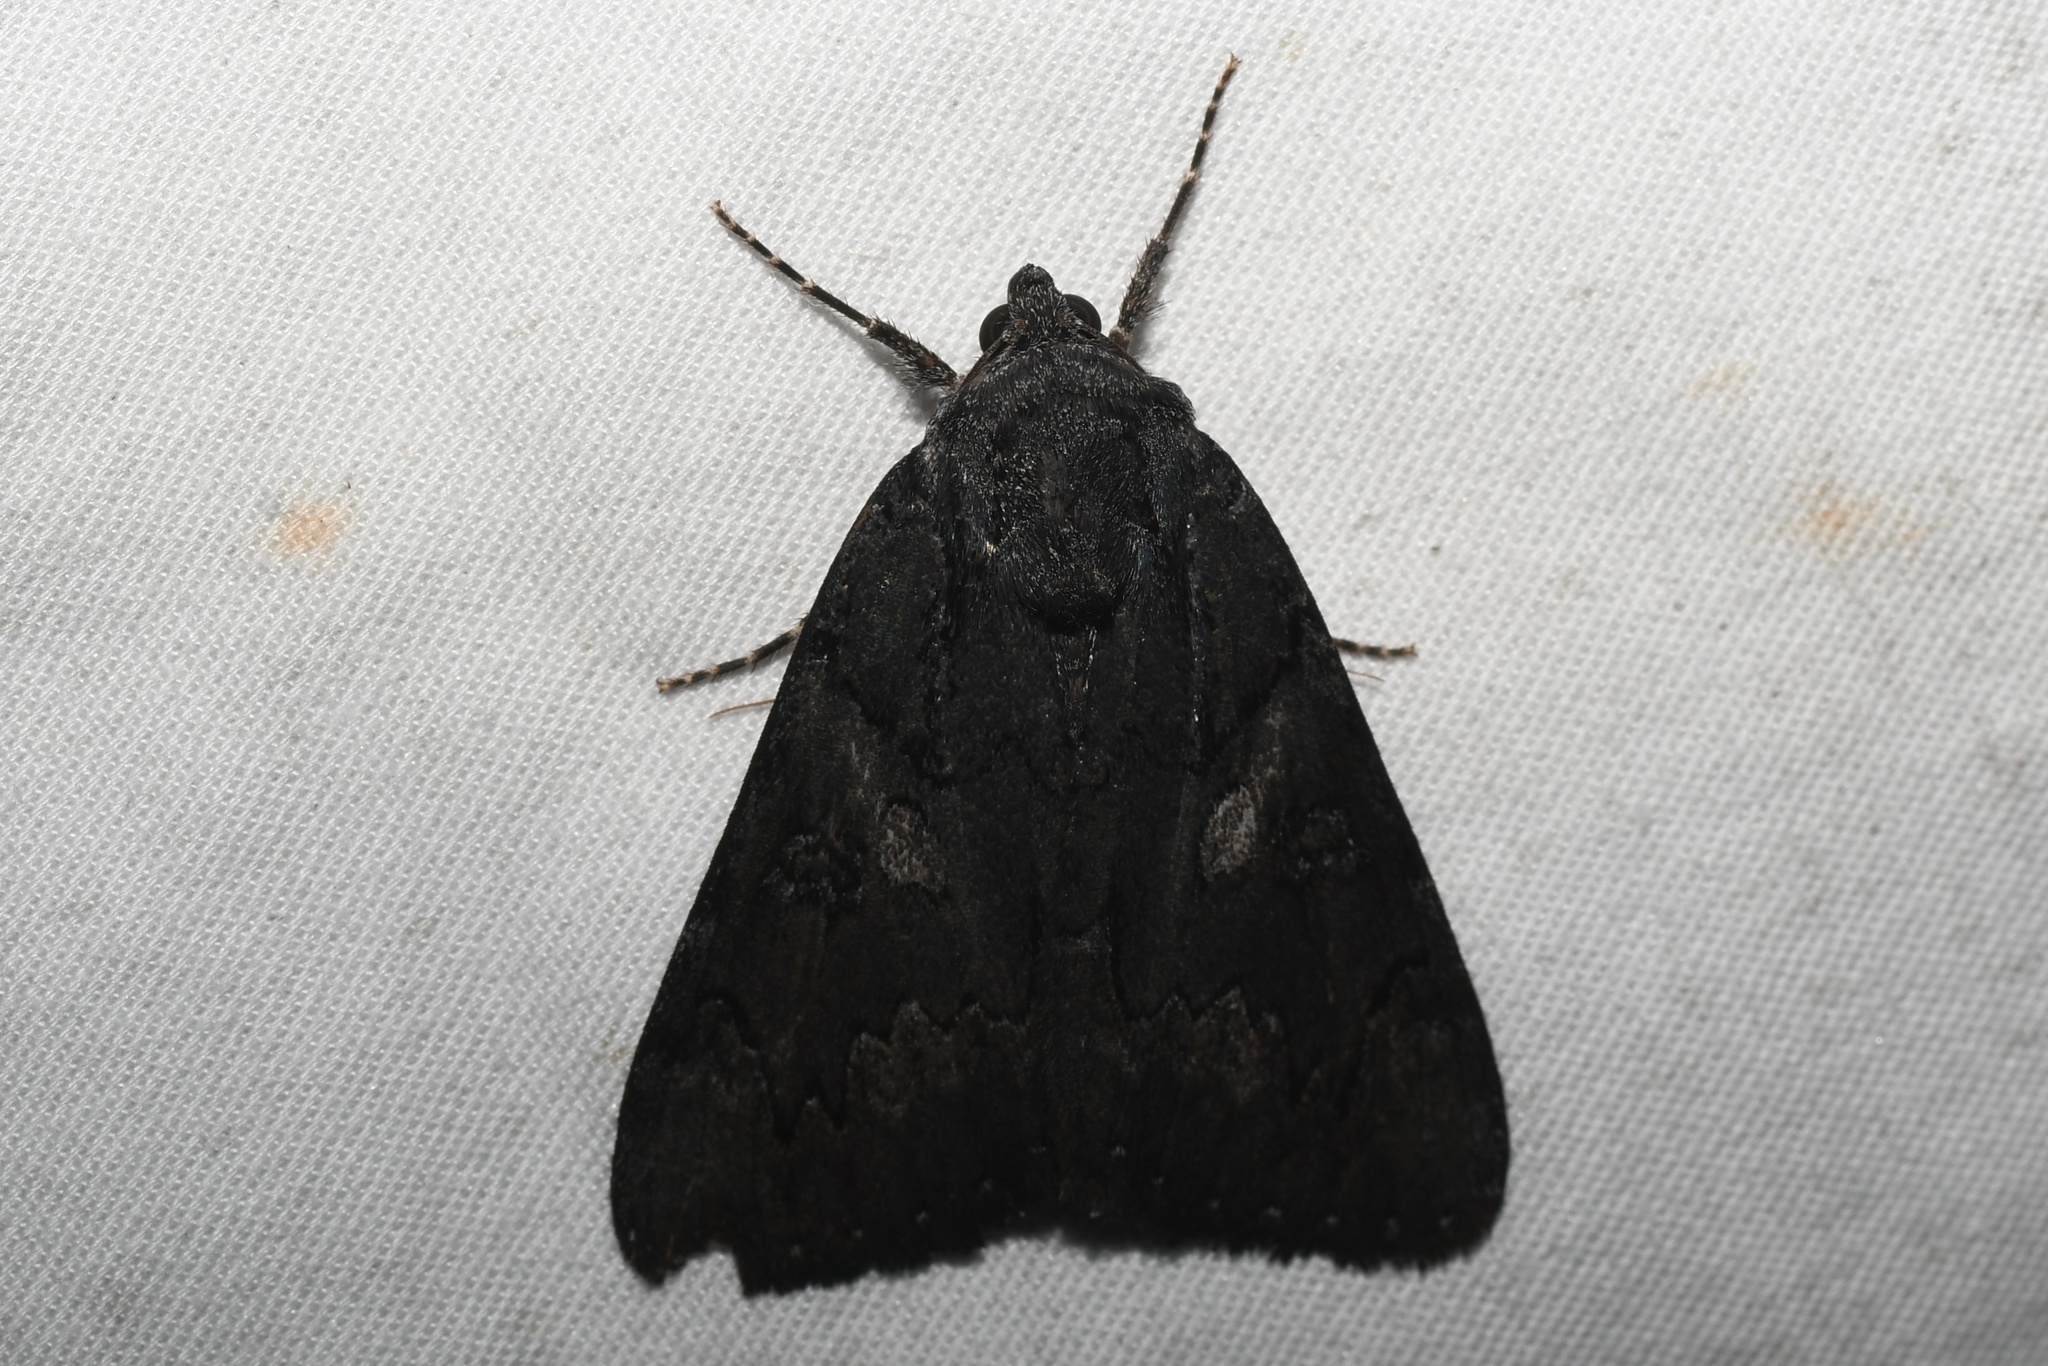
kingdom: Animalia
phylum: Arthropoda
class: Insecta
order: Lepidoptera
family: Erebidae
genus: Catocala
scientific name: Catocala antinympha
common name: Sweetfern underwing
